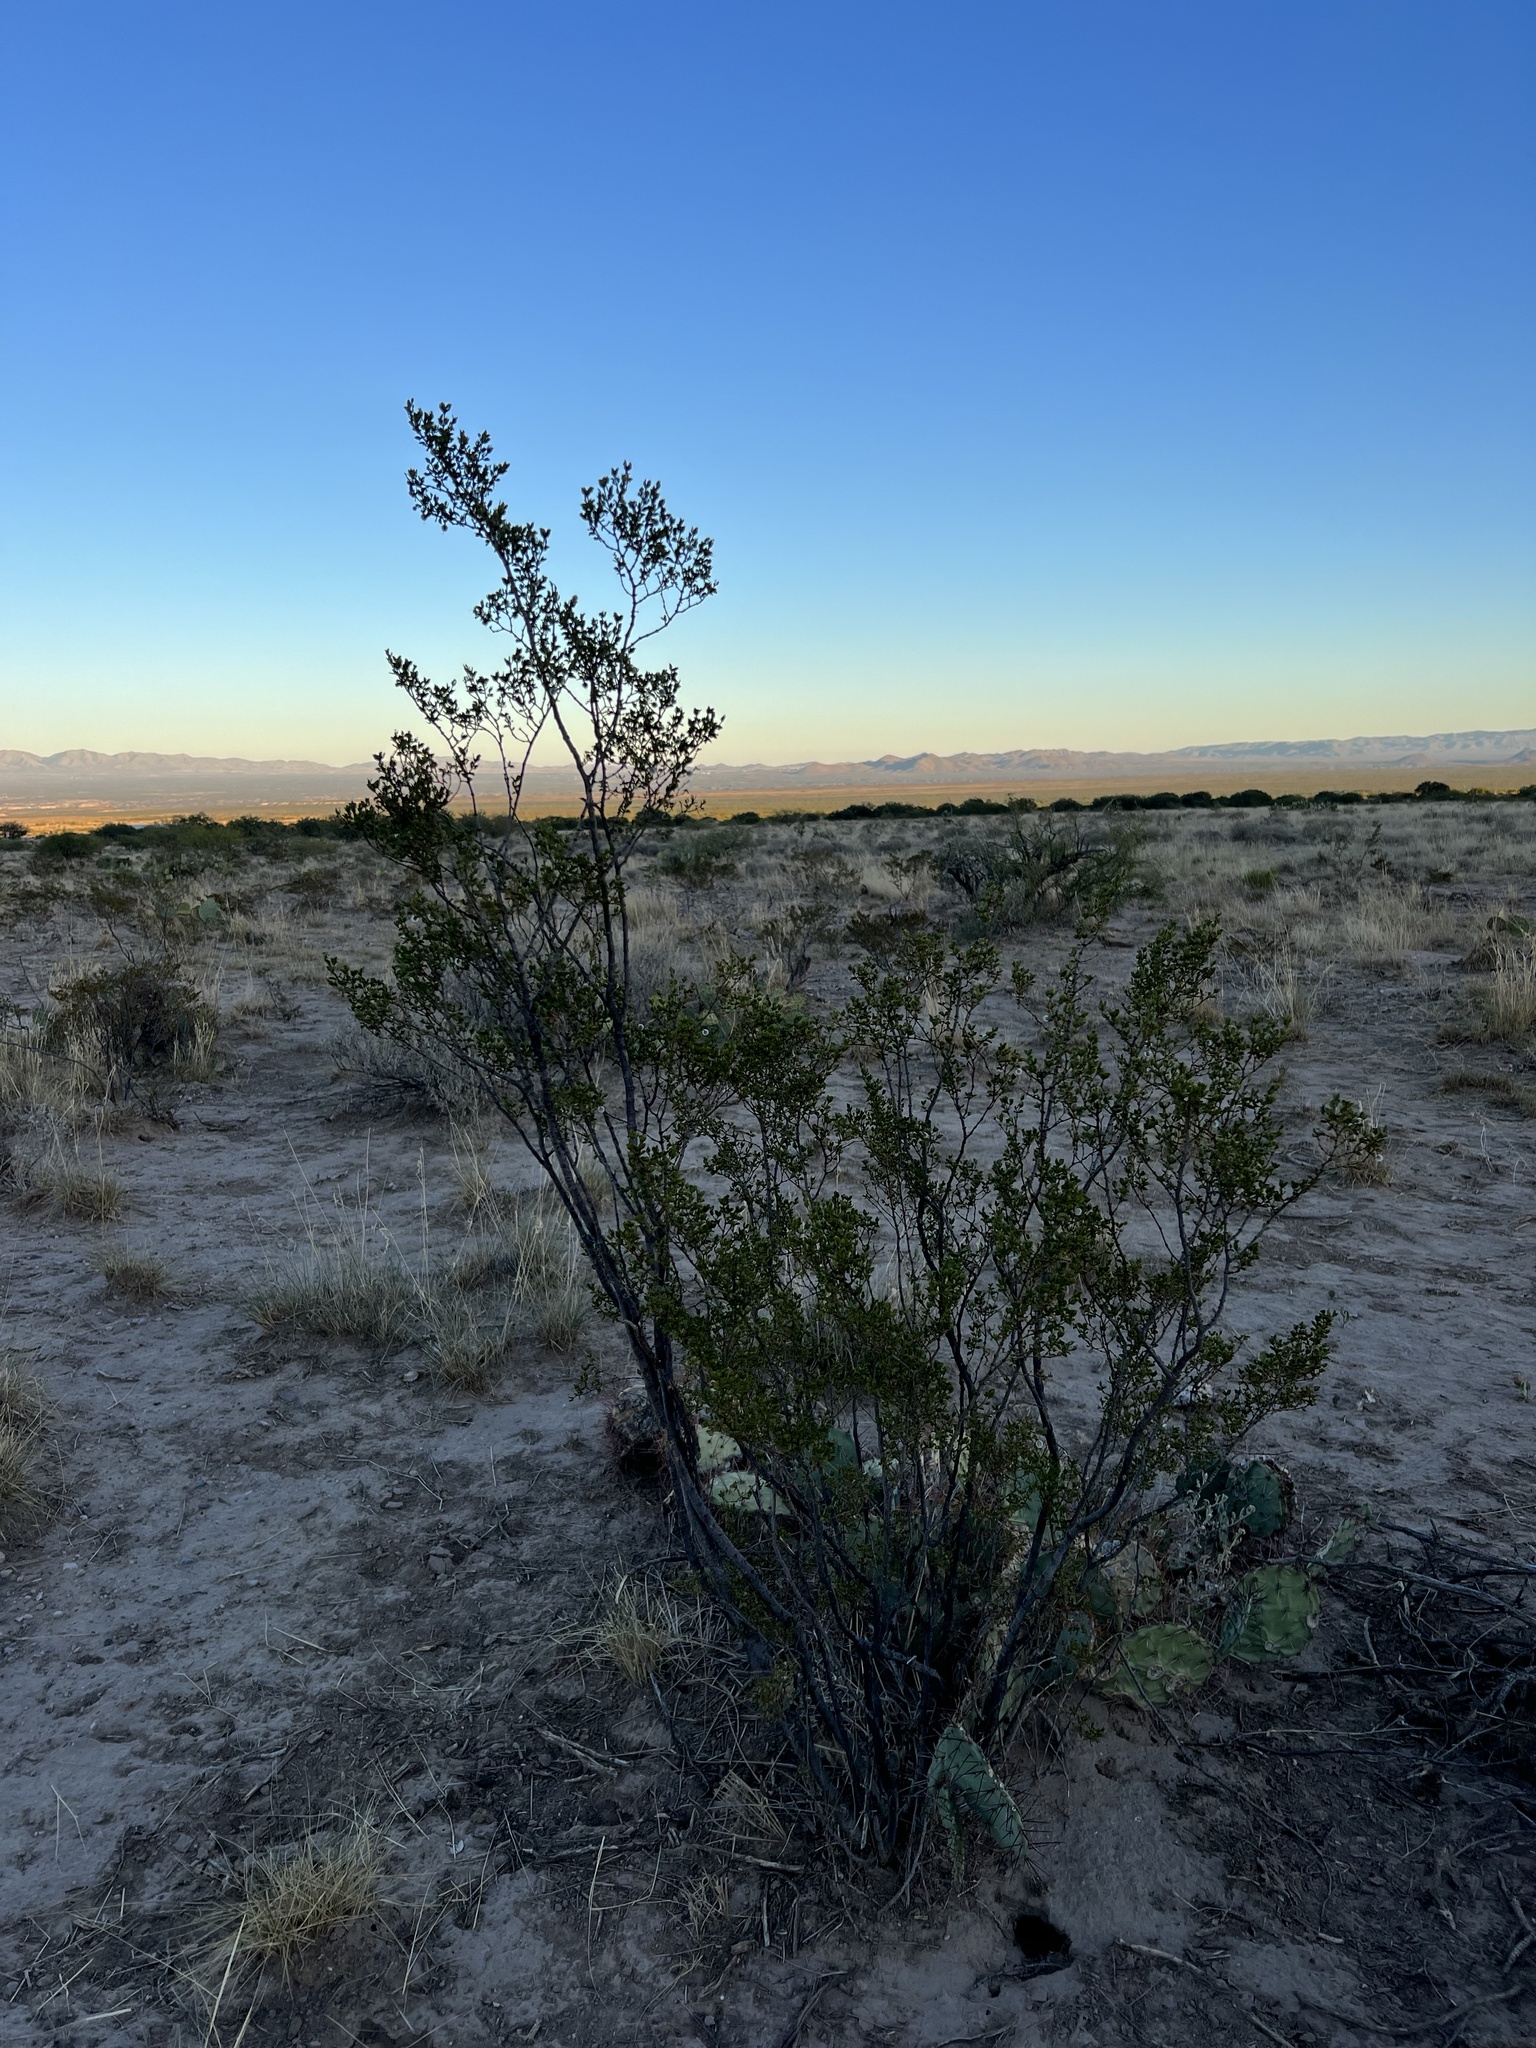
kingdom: Plantae
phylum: Tracheophyta
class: Magnoliopsida
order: Zygophyllales
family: Zygophyllaceae
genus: Larrea
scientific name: Larrea tridentata
